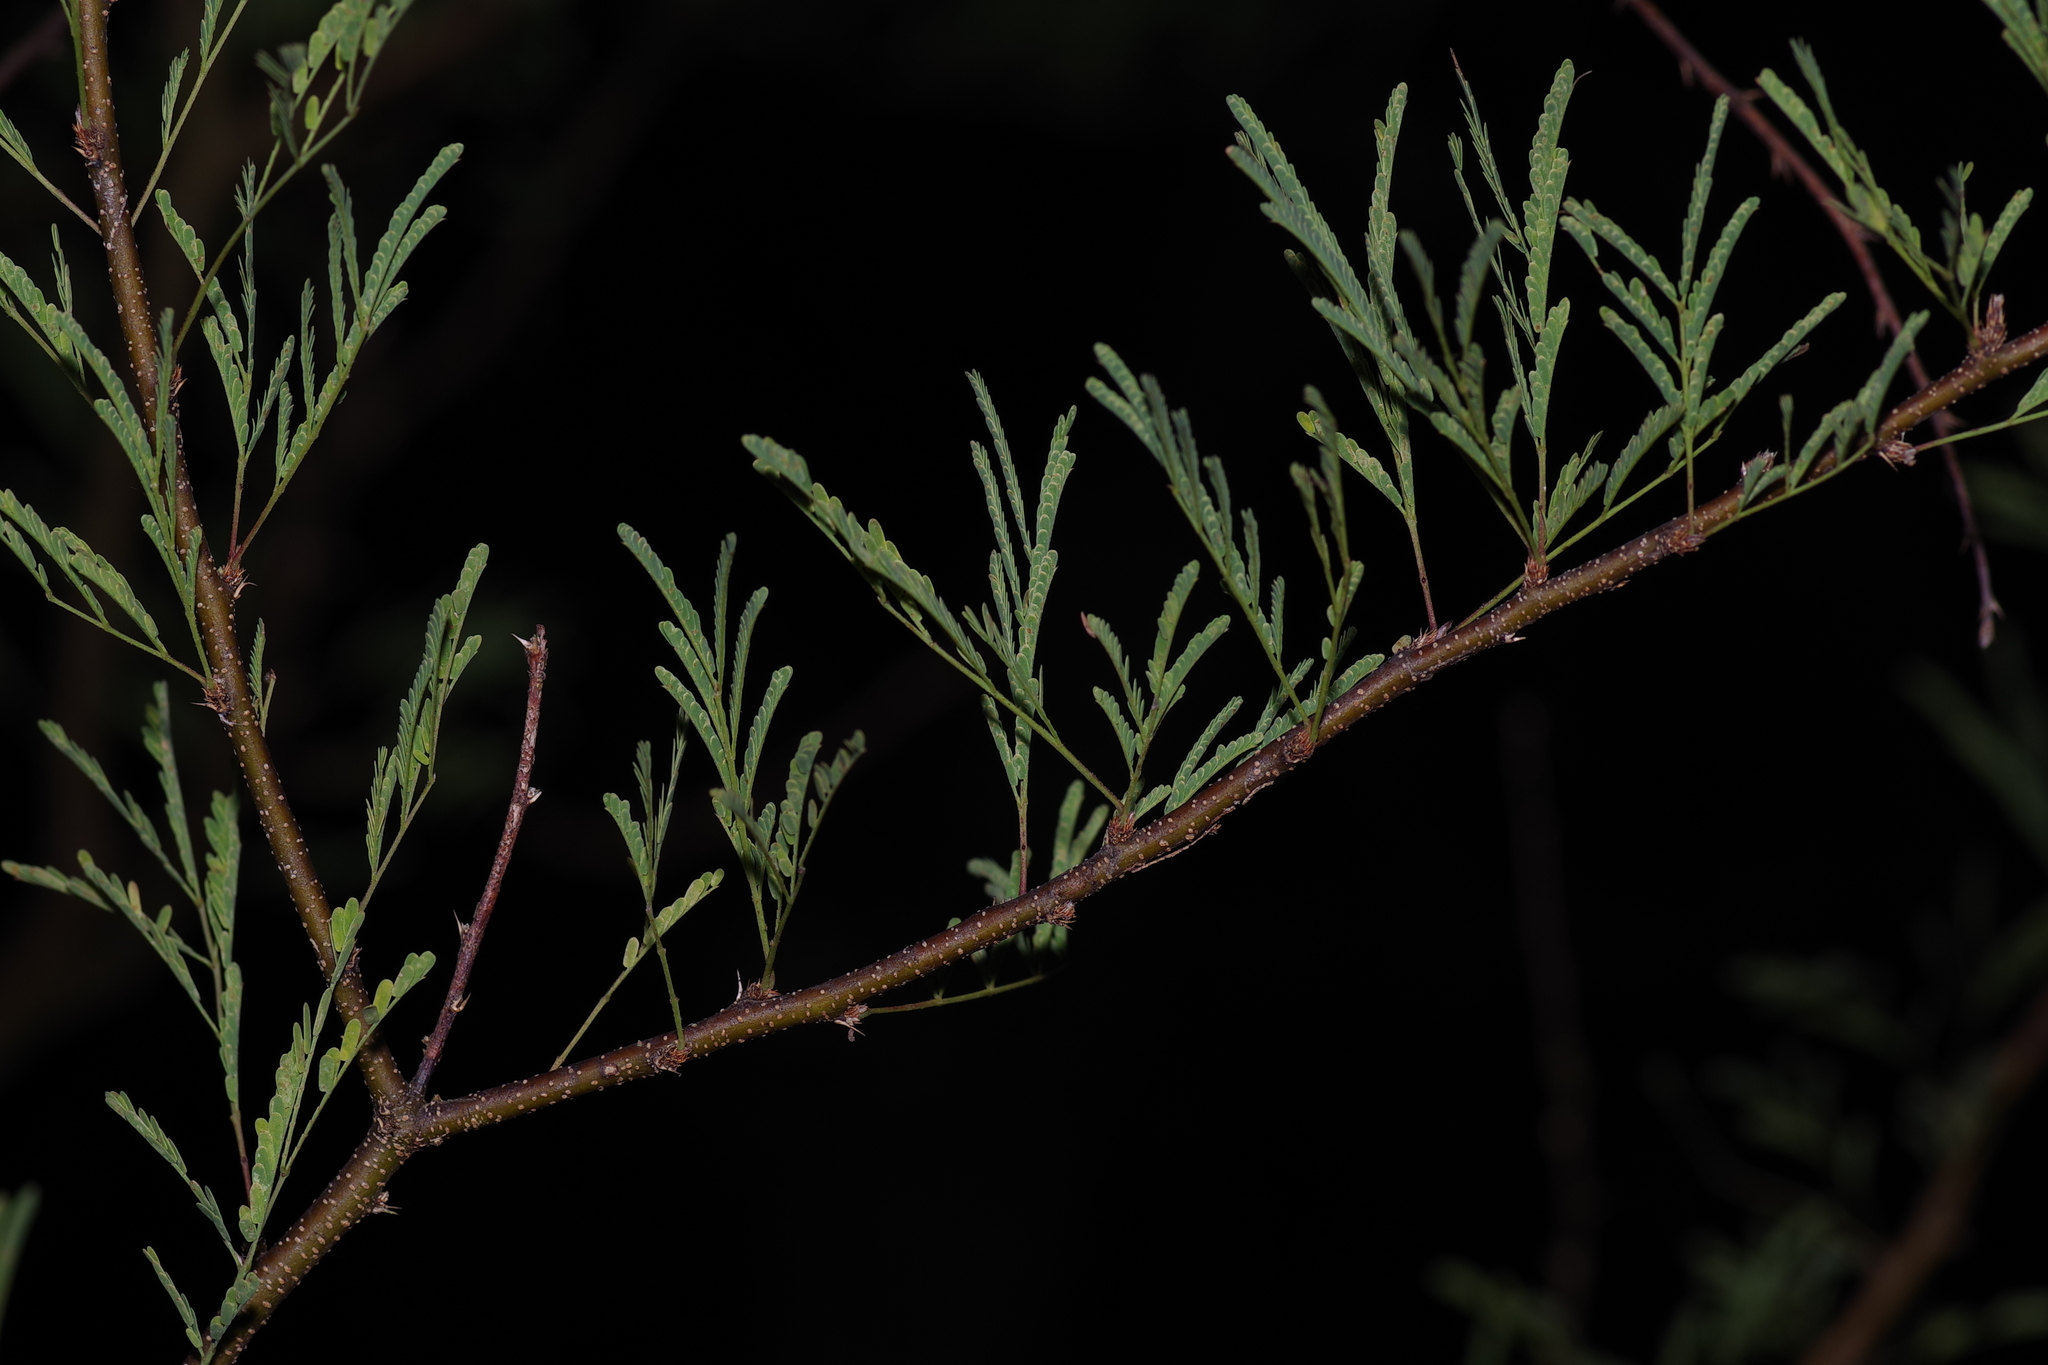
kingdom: Plantae
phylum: Tracheophyta
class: Magnoliopsida
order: Fabales
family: Fabaceae
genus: Vachellia
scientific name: Vachellia farnesiana
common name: Sweet acacia
